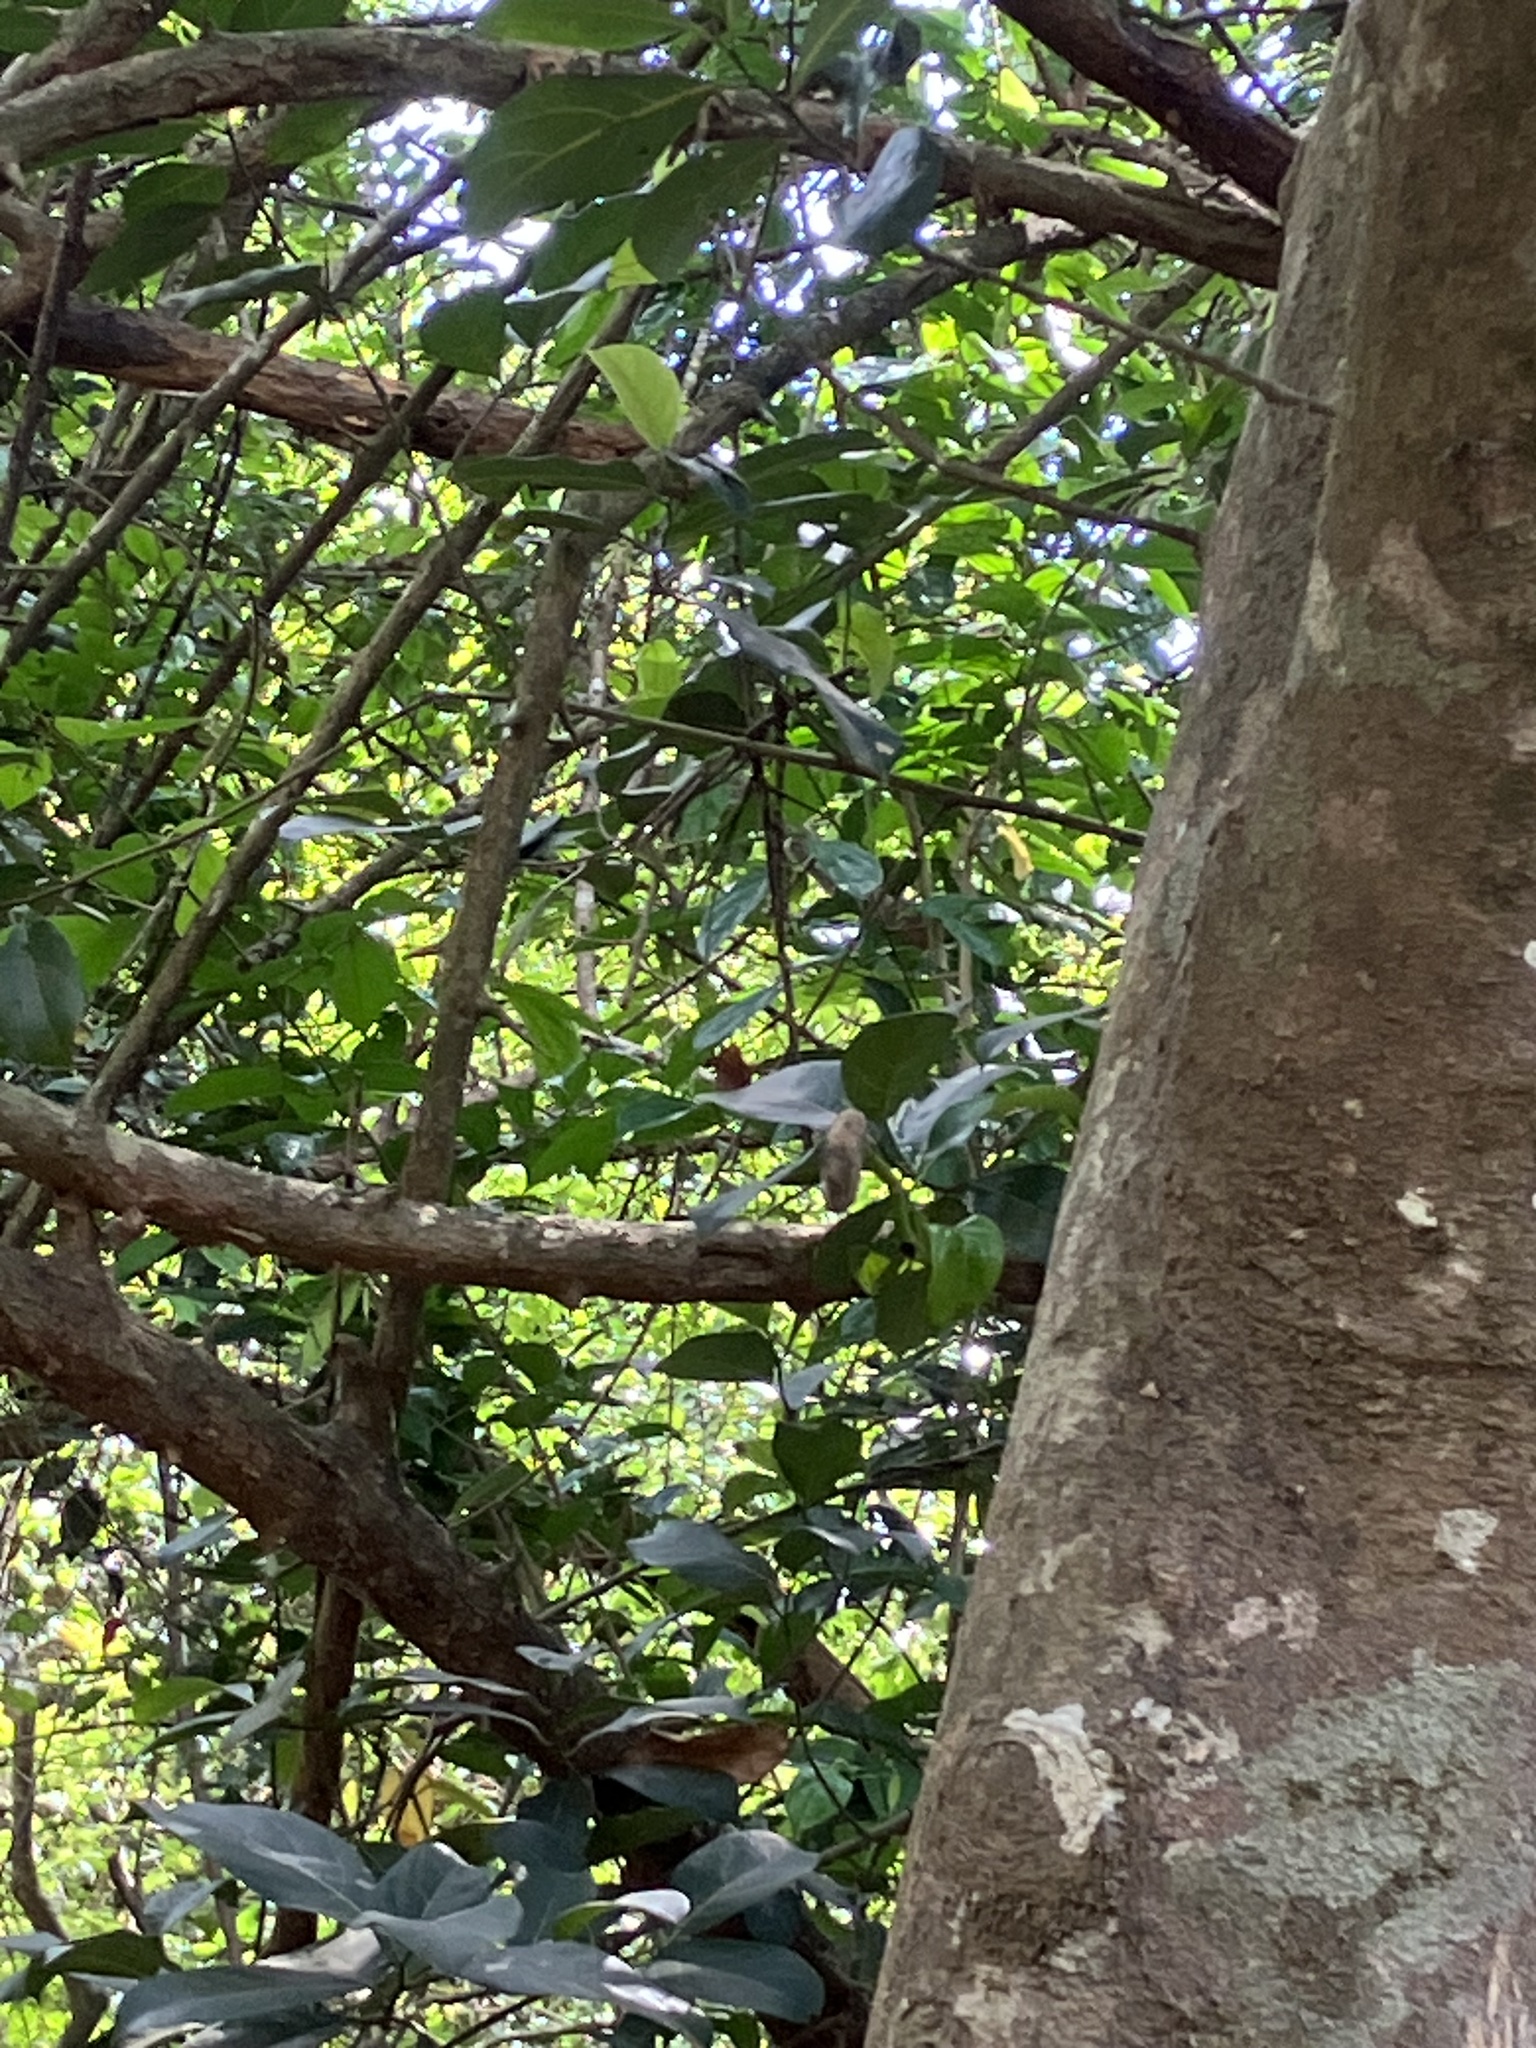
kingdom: Animalia
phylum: Arthropoda
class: Insecta
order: Lepidoptera
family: Lycaenidae
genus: Abisara
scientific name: Abisara bifasciata
